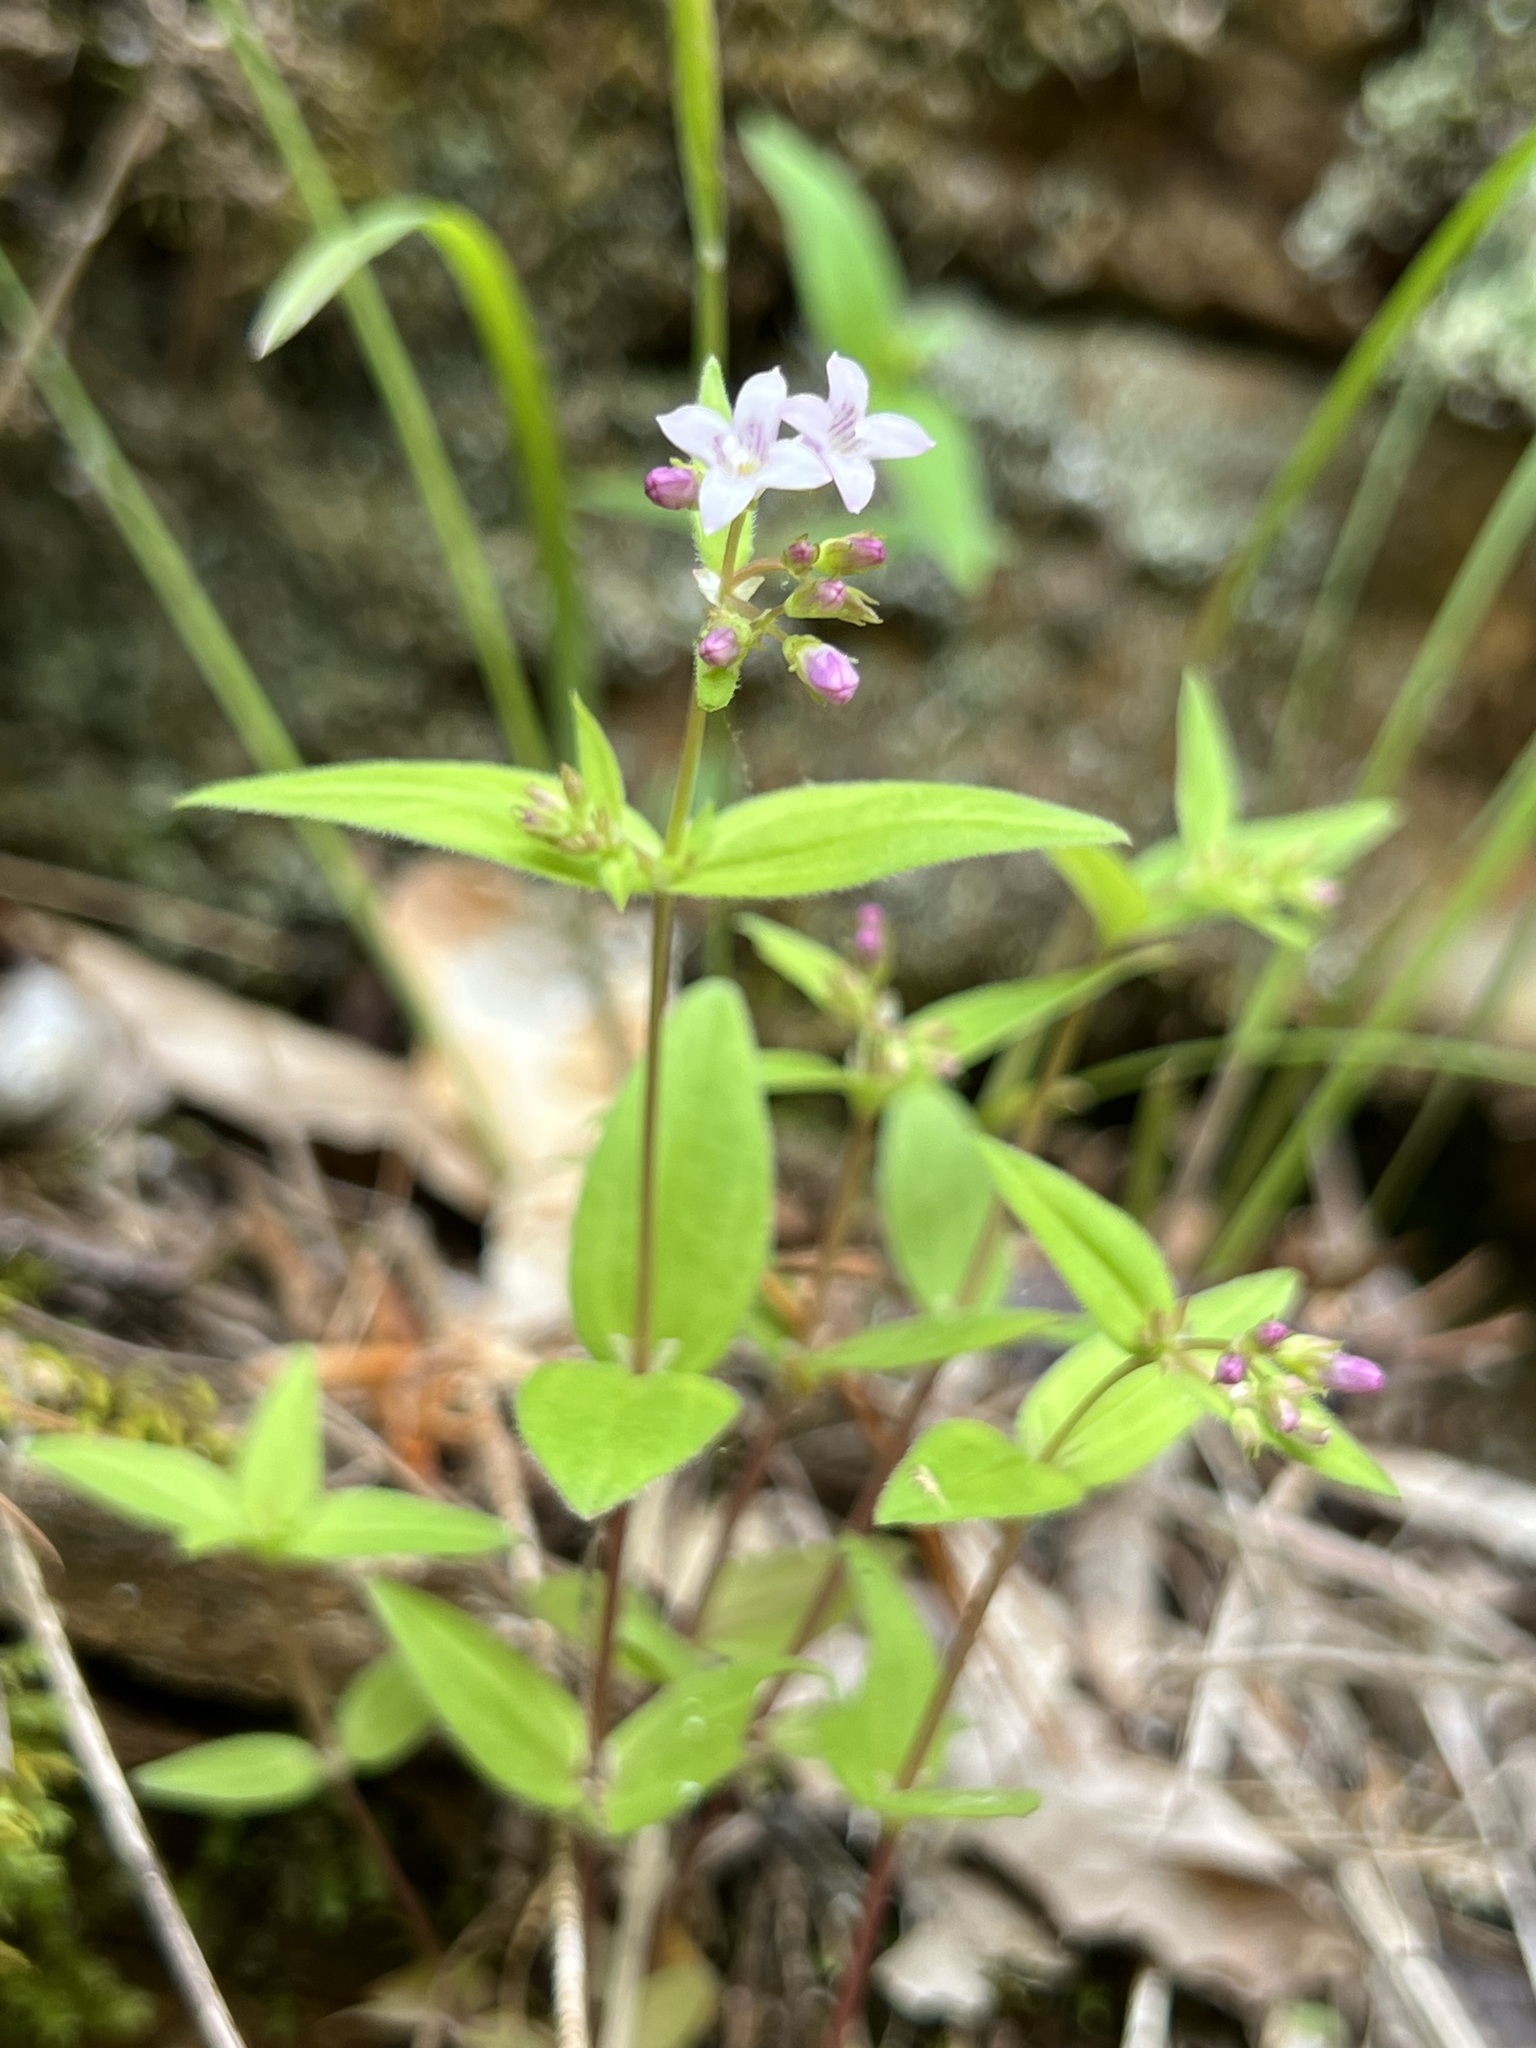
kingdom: Plantae
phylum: Tracheophyta
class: Magnoliopsida
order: Gentianales
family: Rubiaceae
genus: Houstonia
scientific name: Houstonia purpurea
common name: Summer bluet
